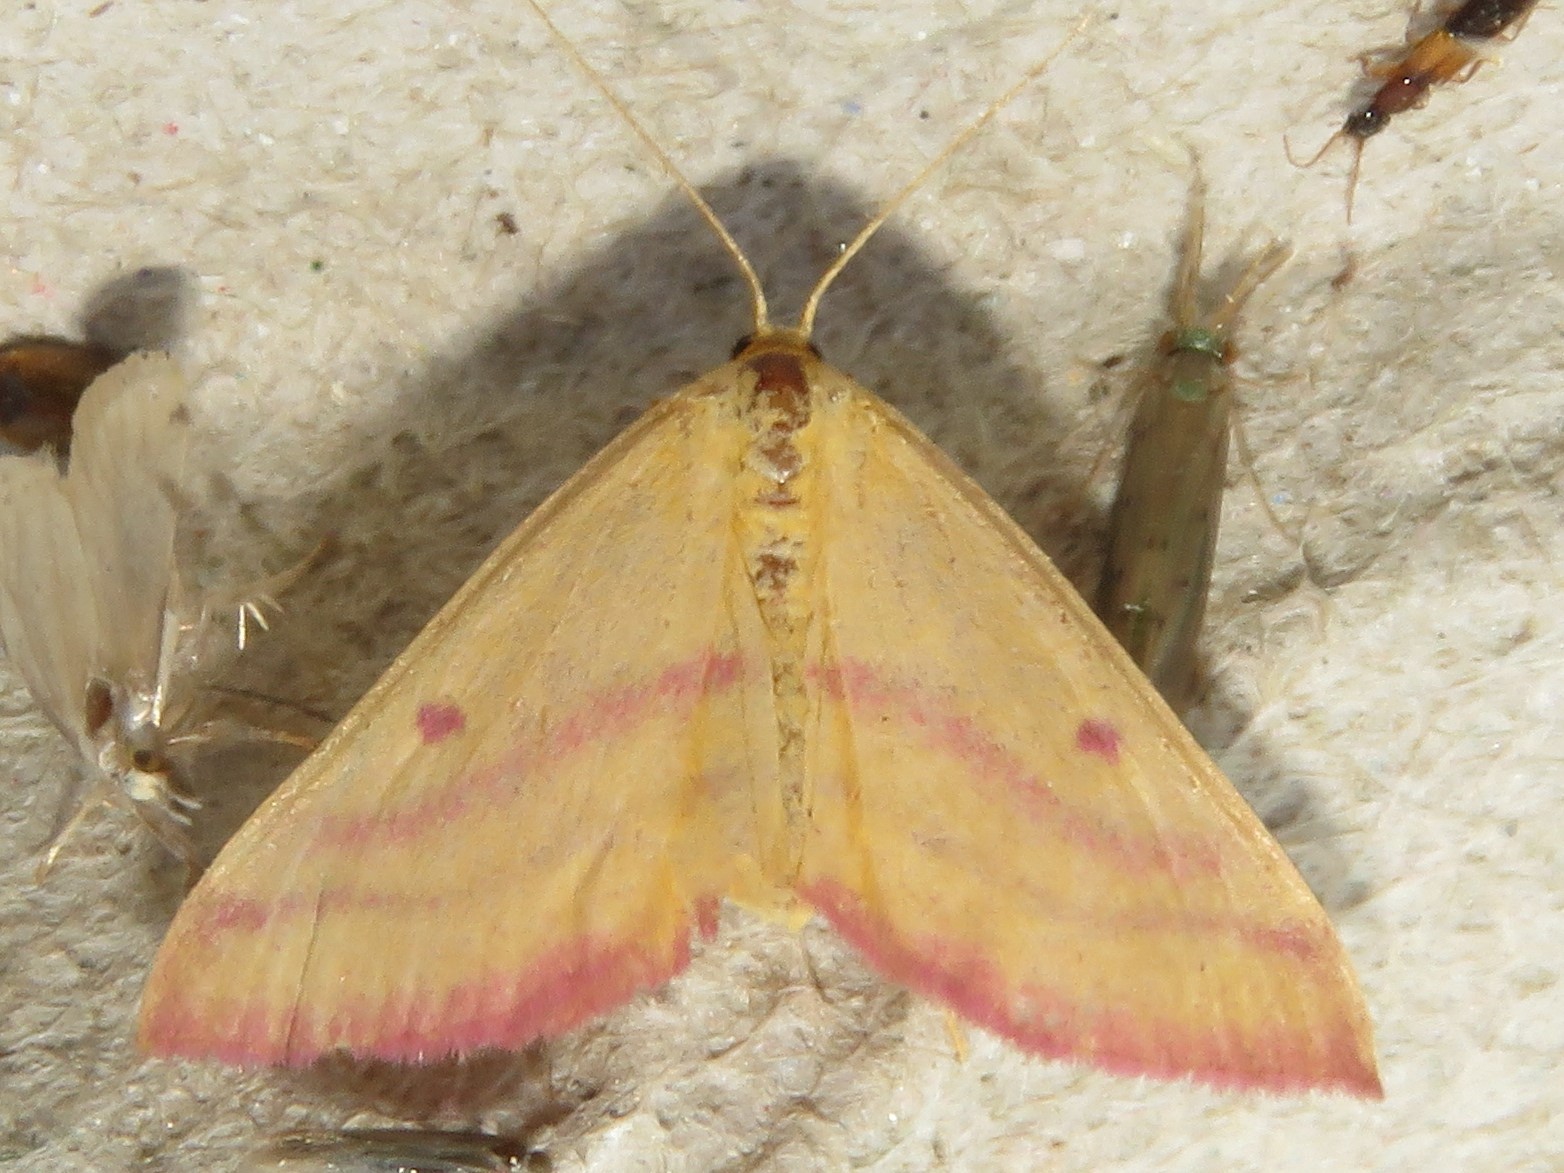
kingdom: Animalia
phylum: Arthropoda
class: Insecta
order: Lepidoptera
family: Geometridae
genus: Haematopis
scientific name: Haematopis grataria
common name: Chickweed geometer
